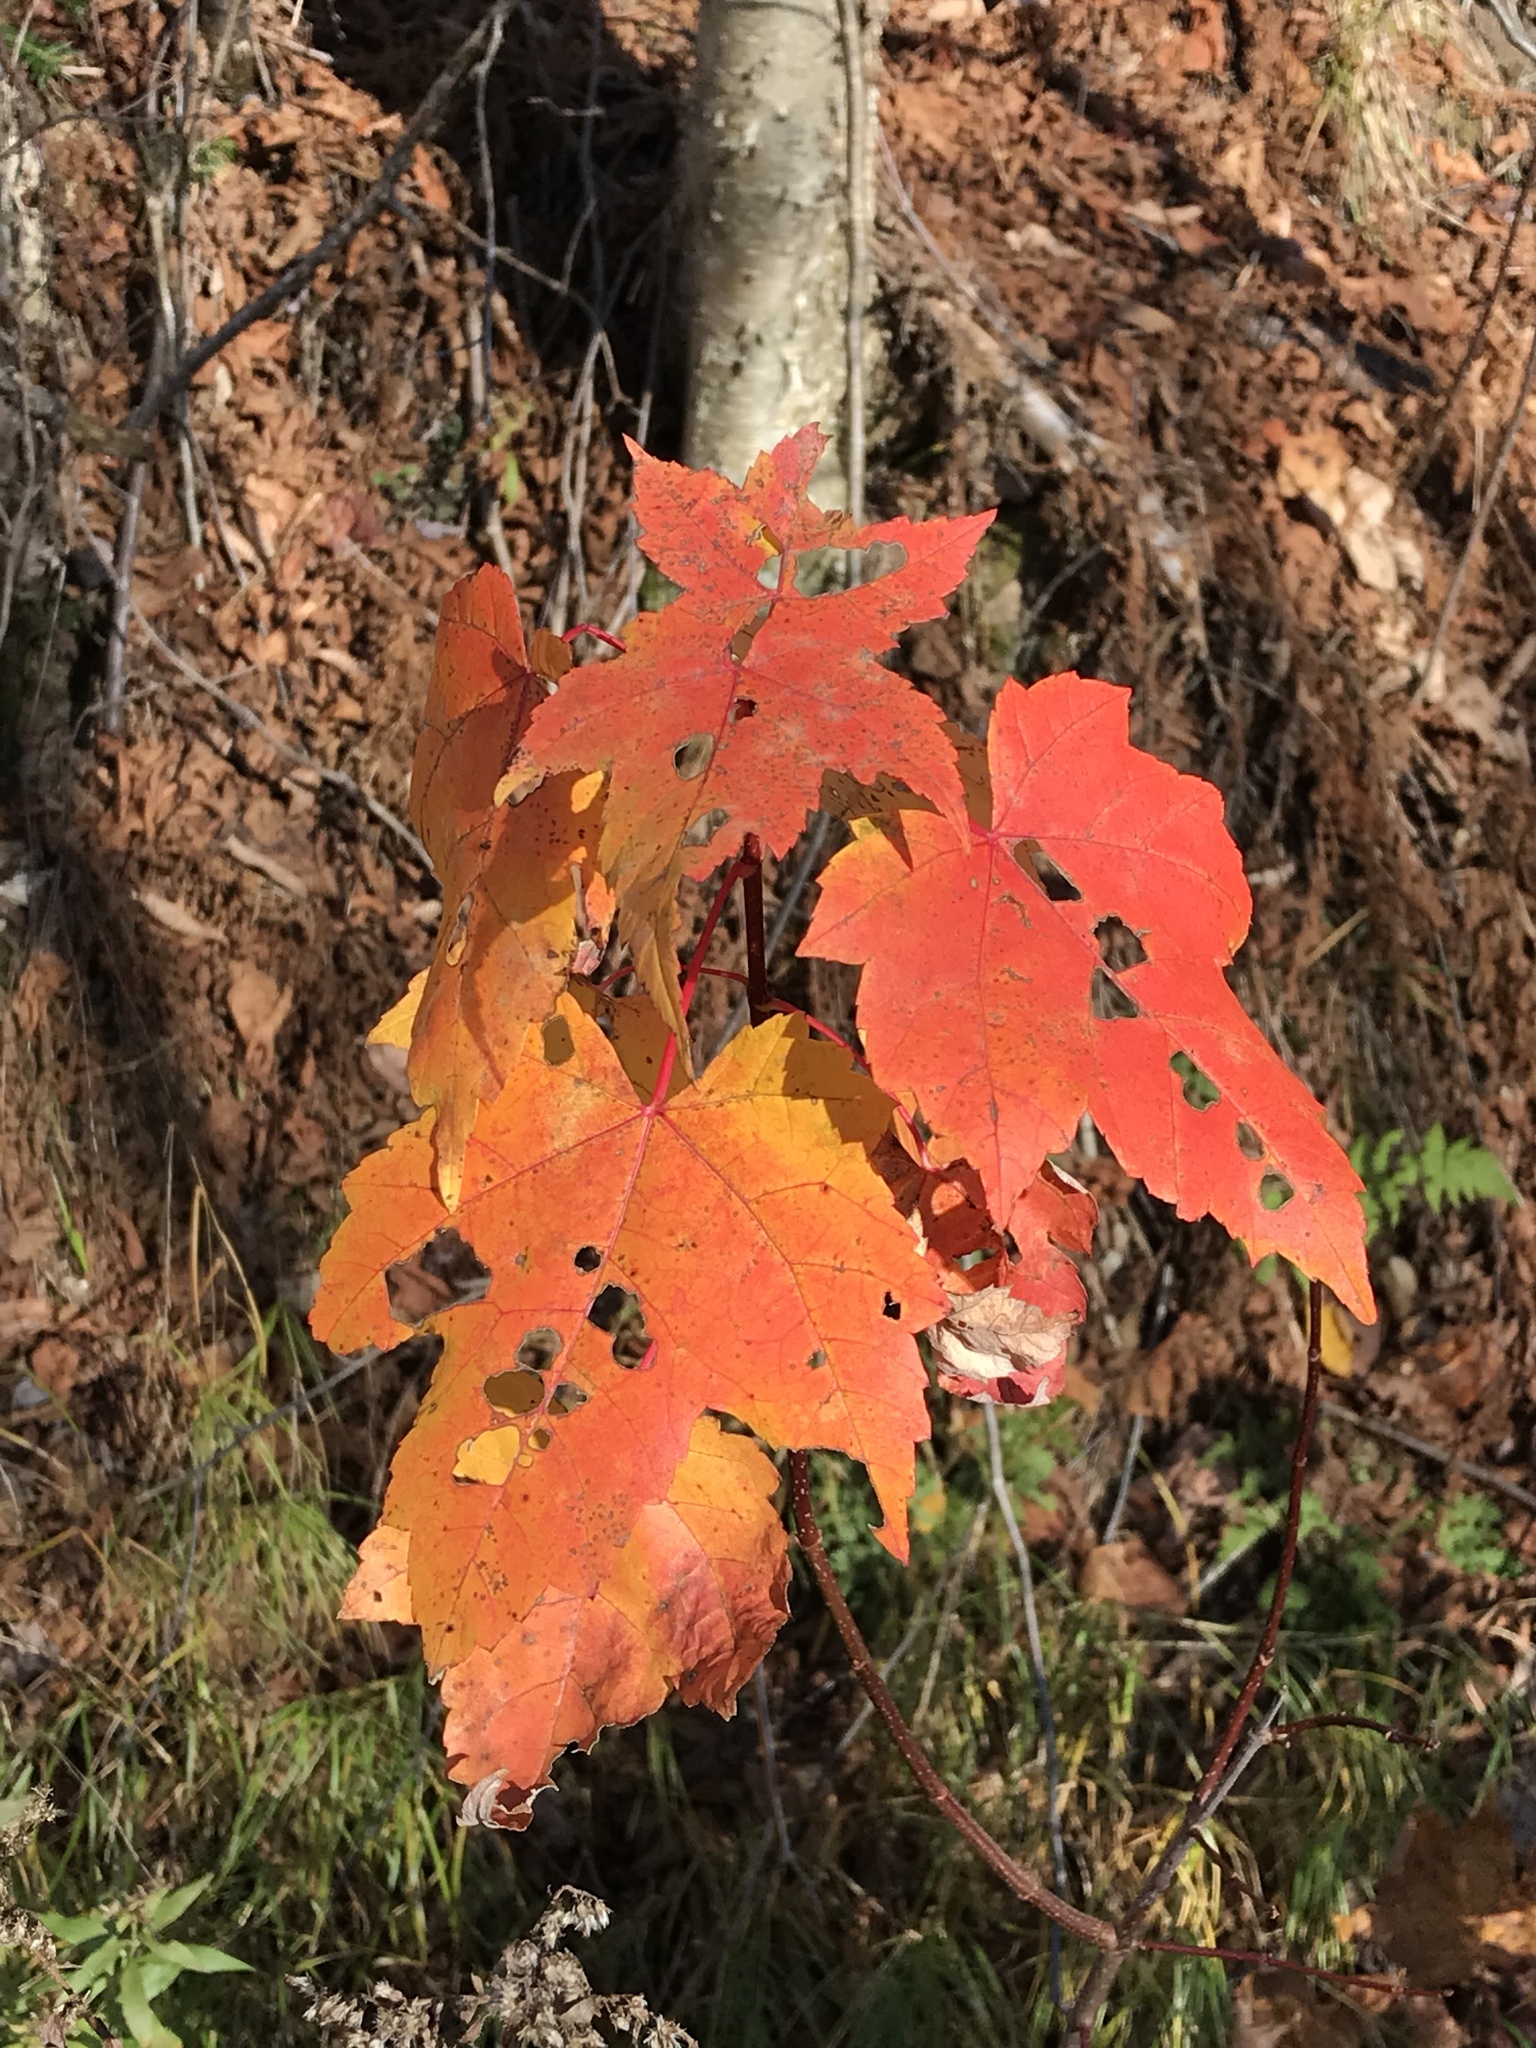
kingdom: Plantae
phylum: Tracheophyta
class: Magnoliopsida
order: Sapindales
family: Sapindaceae
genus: Acer
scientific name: Acer rubrum
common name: Red maple
